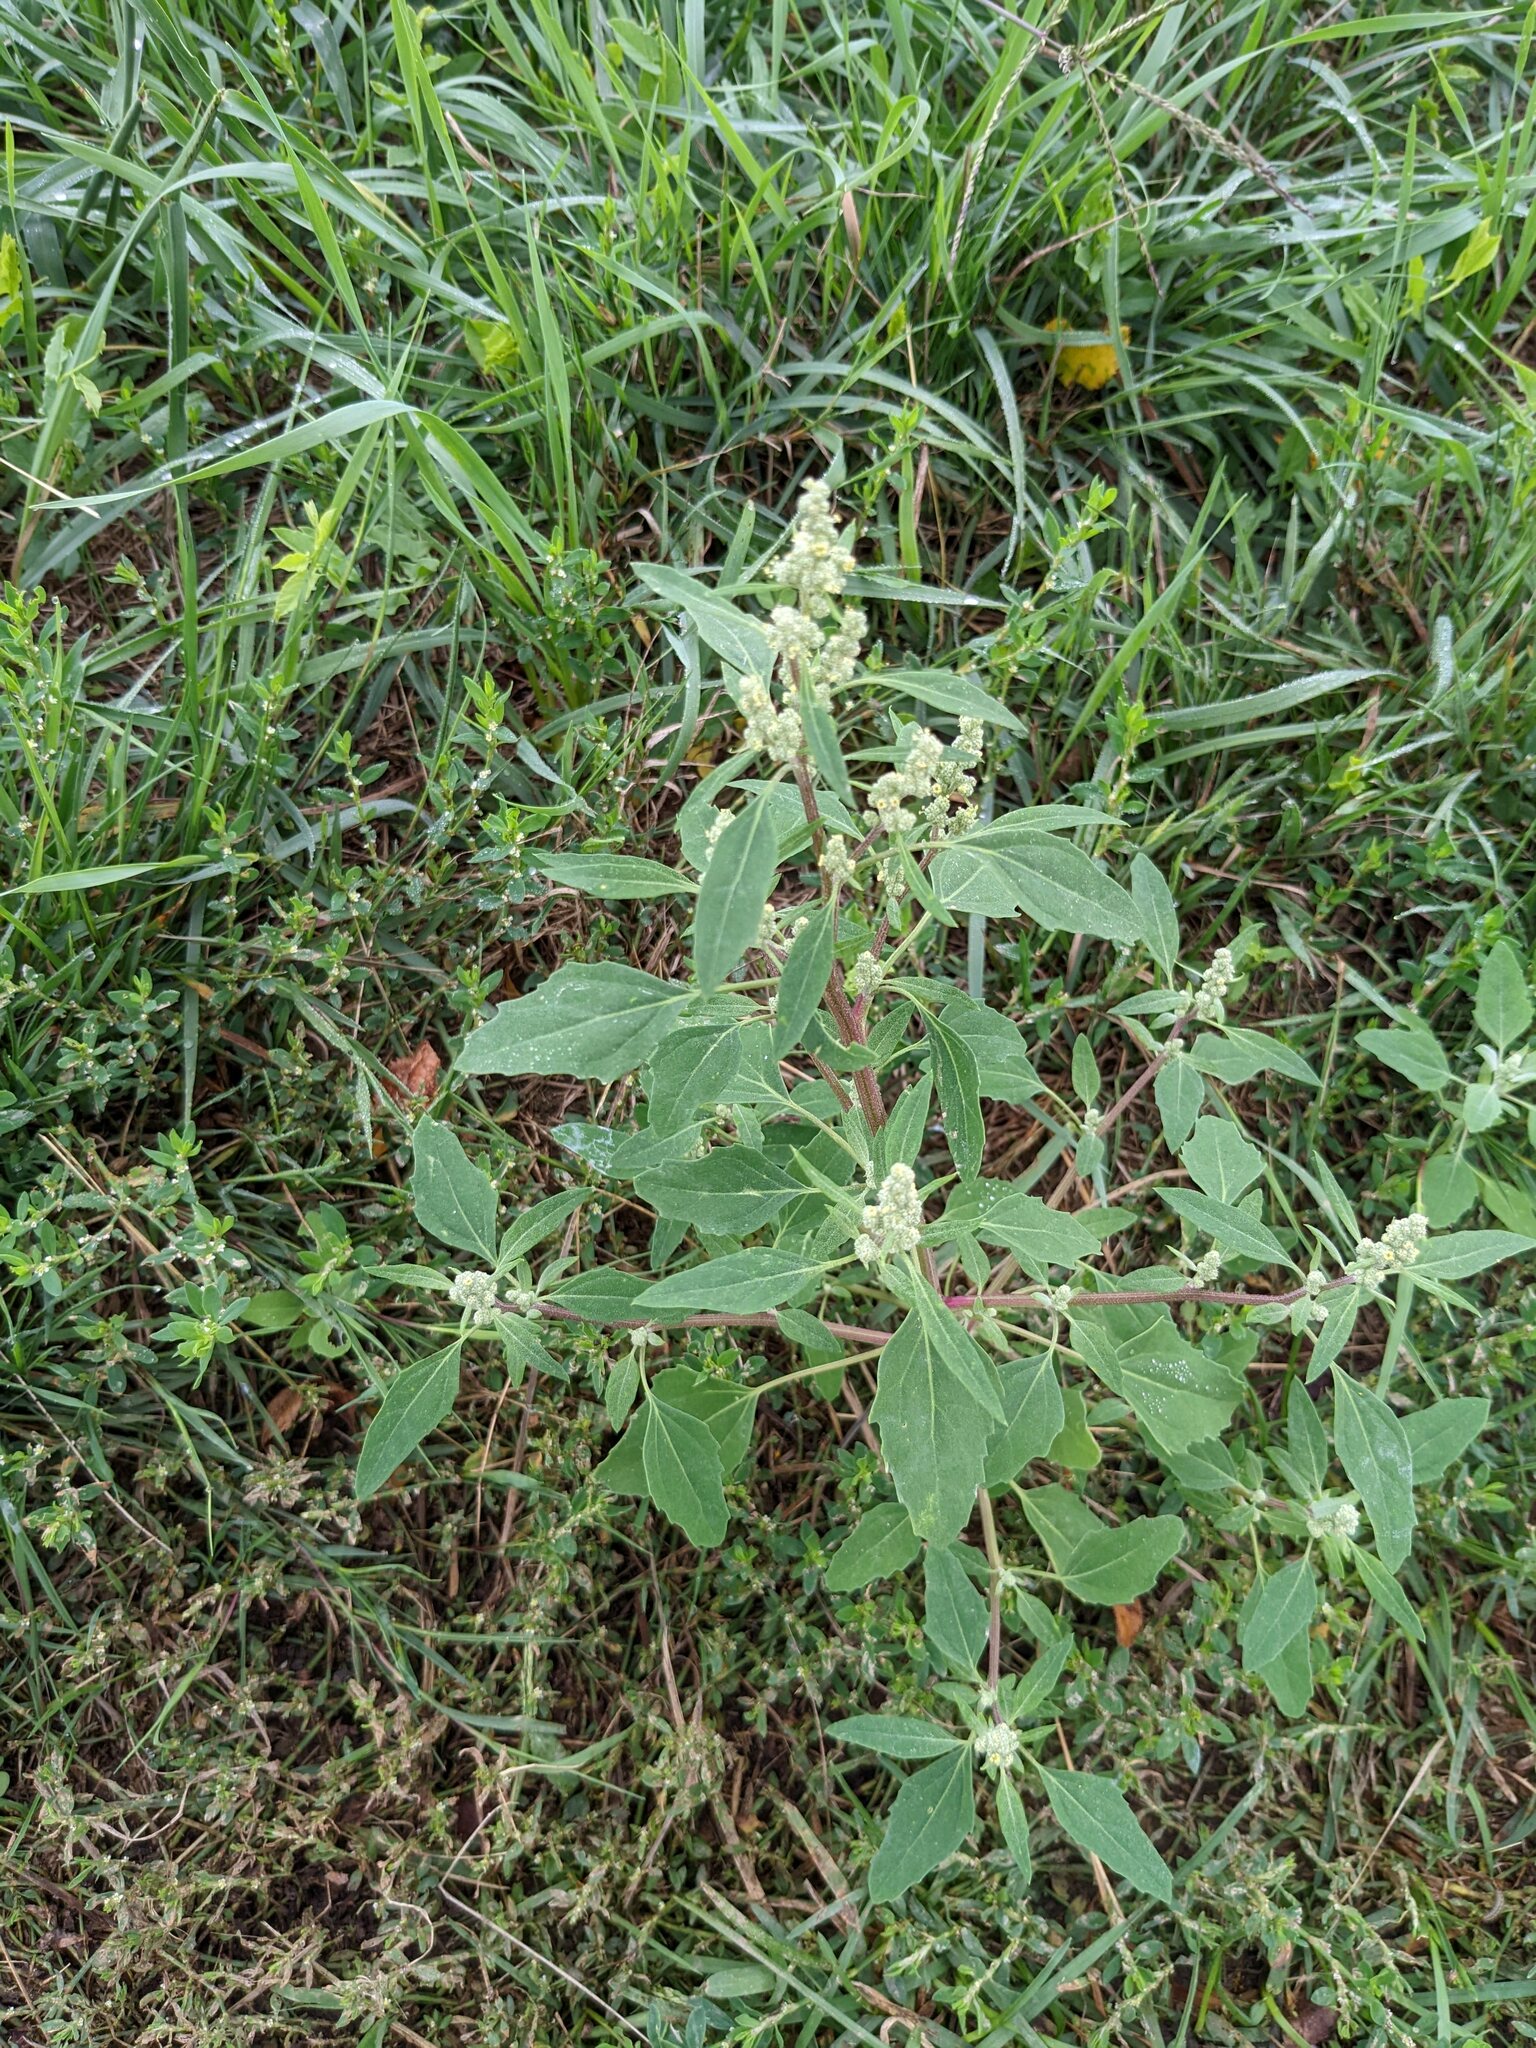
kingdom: Plantae
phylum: Tracheophyta
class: Magnoliopsida
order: Caryophyllales
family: Amaranthaceae
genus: Chenopodium
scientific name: Chenopodium album
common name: Fat-hen
